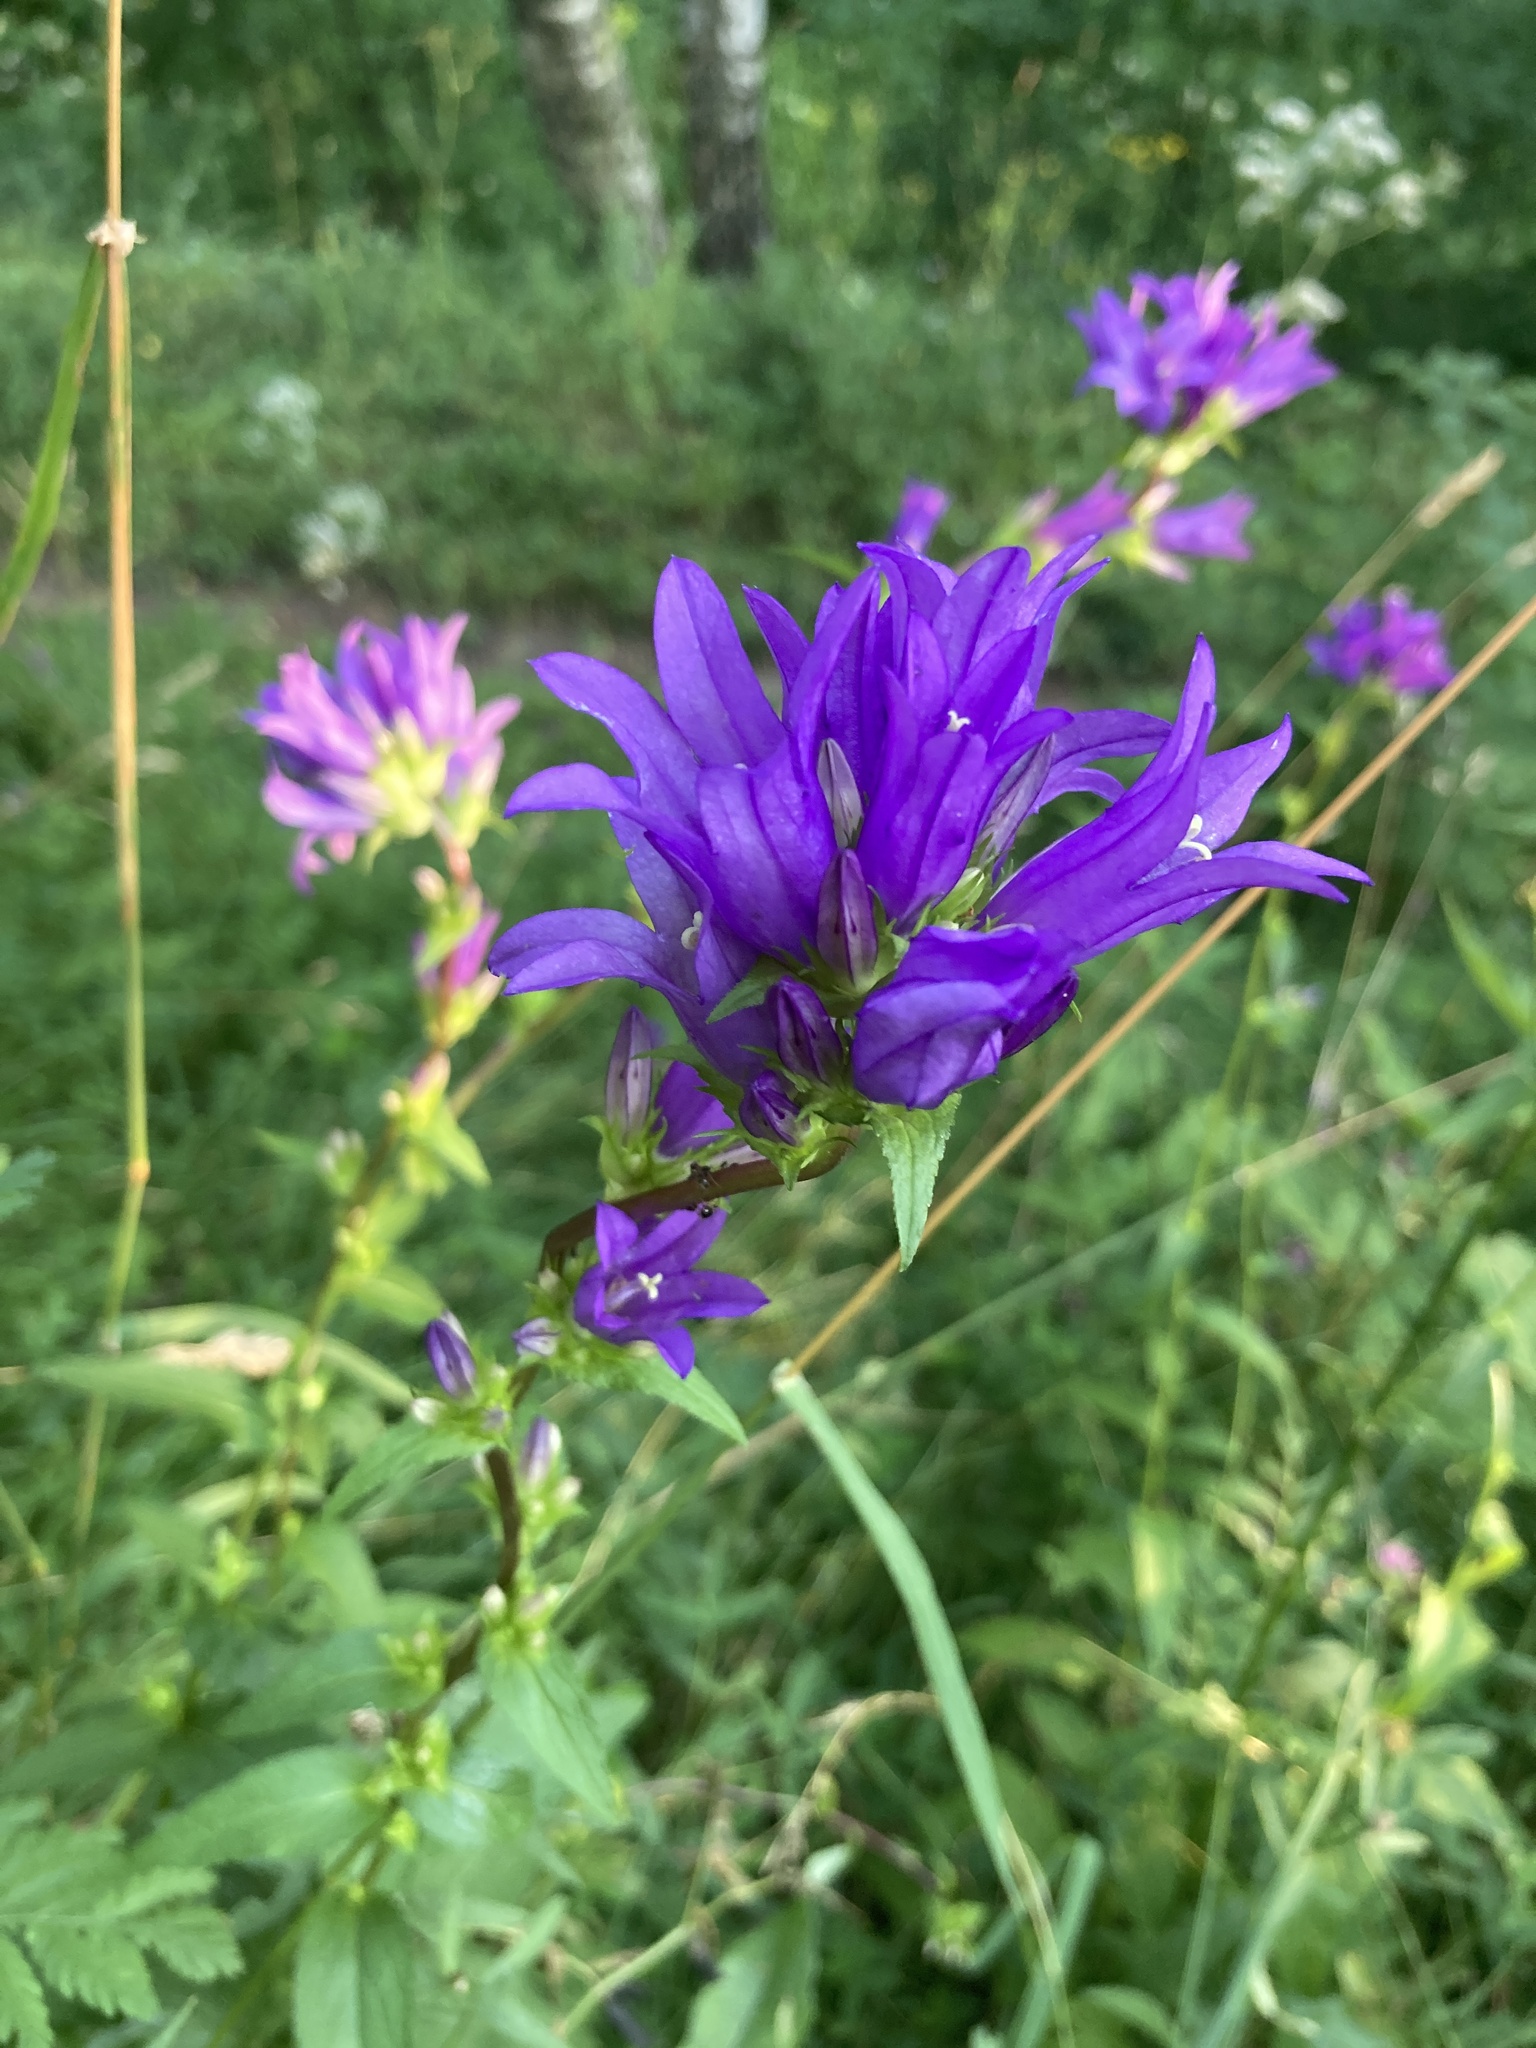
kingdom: Plantae
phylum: Tracheophyta
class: Magnoliopsida
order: Asterales
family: Campanulaceae
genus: Campanula
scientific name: Campanula glomerata
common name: Clustered bellflower
